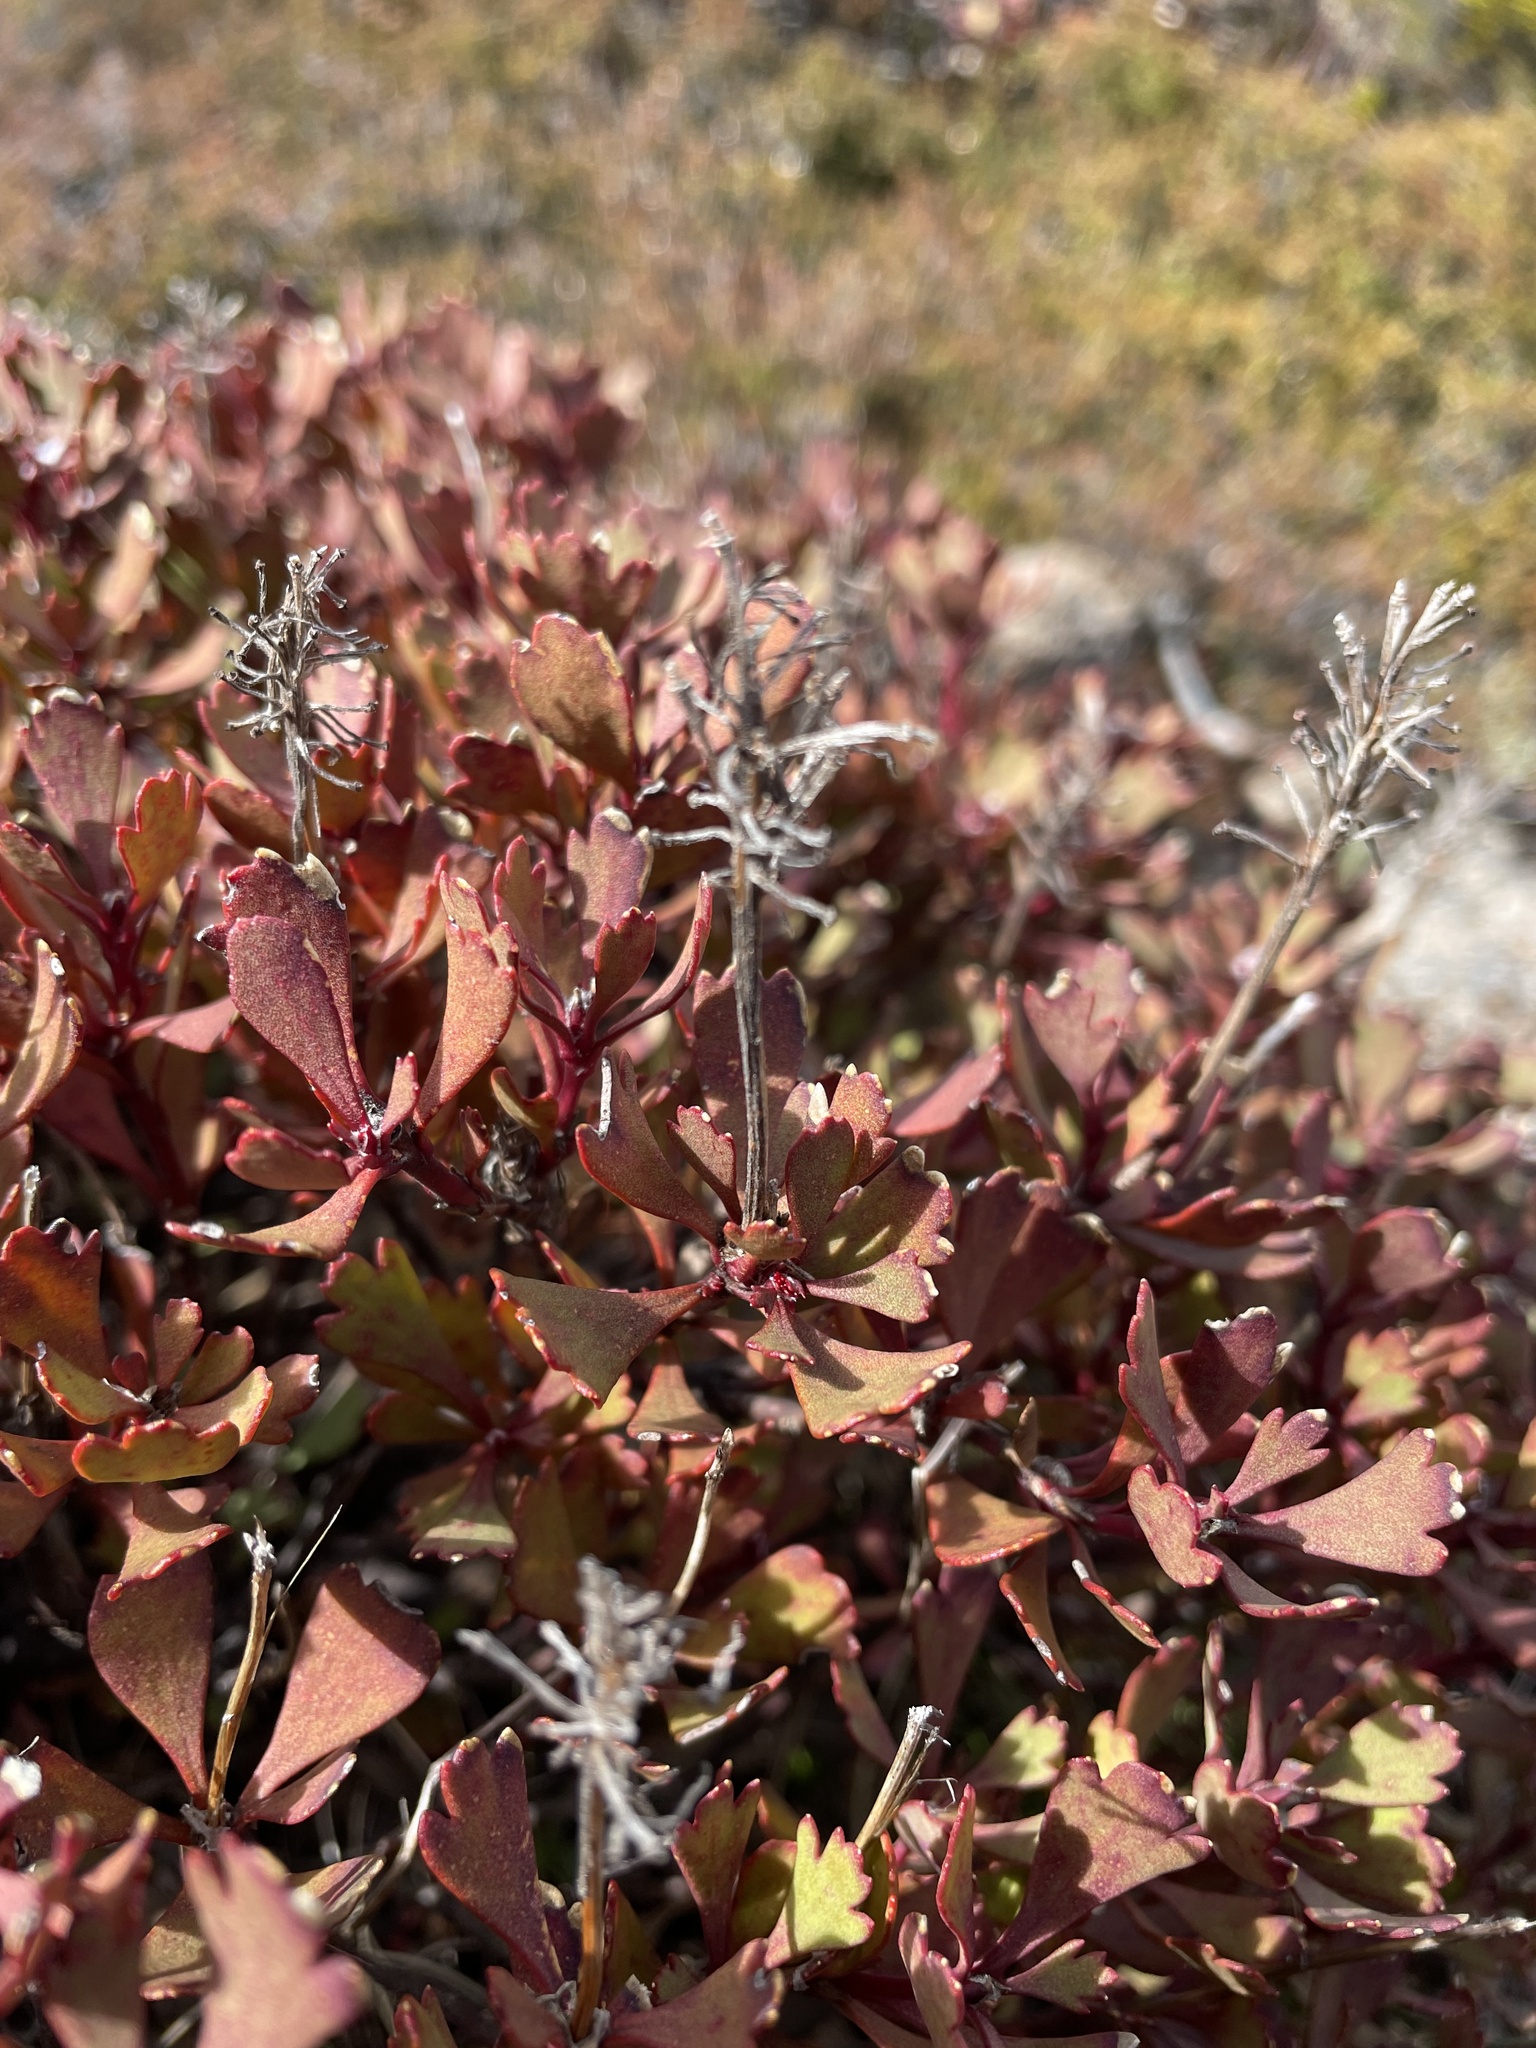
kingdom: Plantae
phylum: Tracheophyta
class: Magnoliopsida
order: Proteales
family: Proteaceae
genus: Bellendena
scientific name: Bellendena montana
